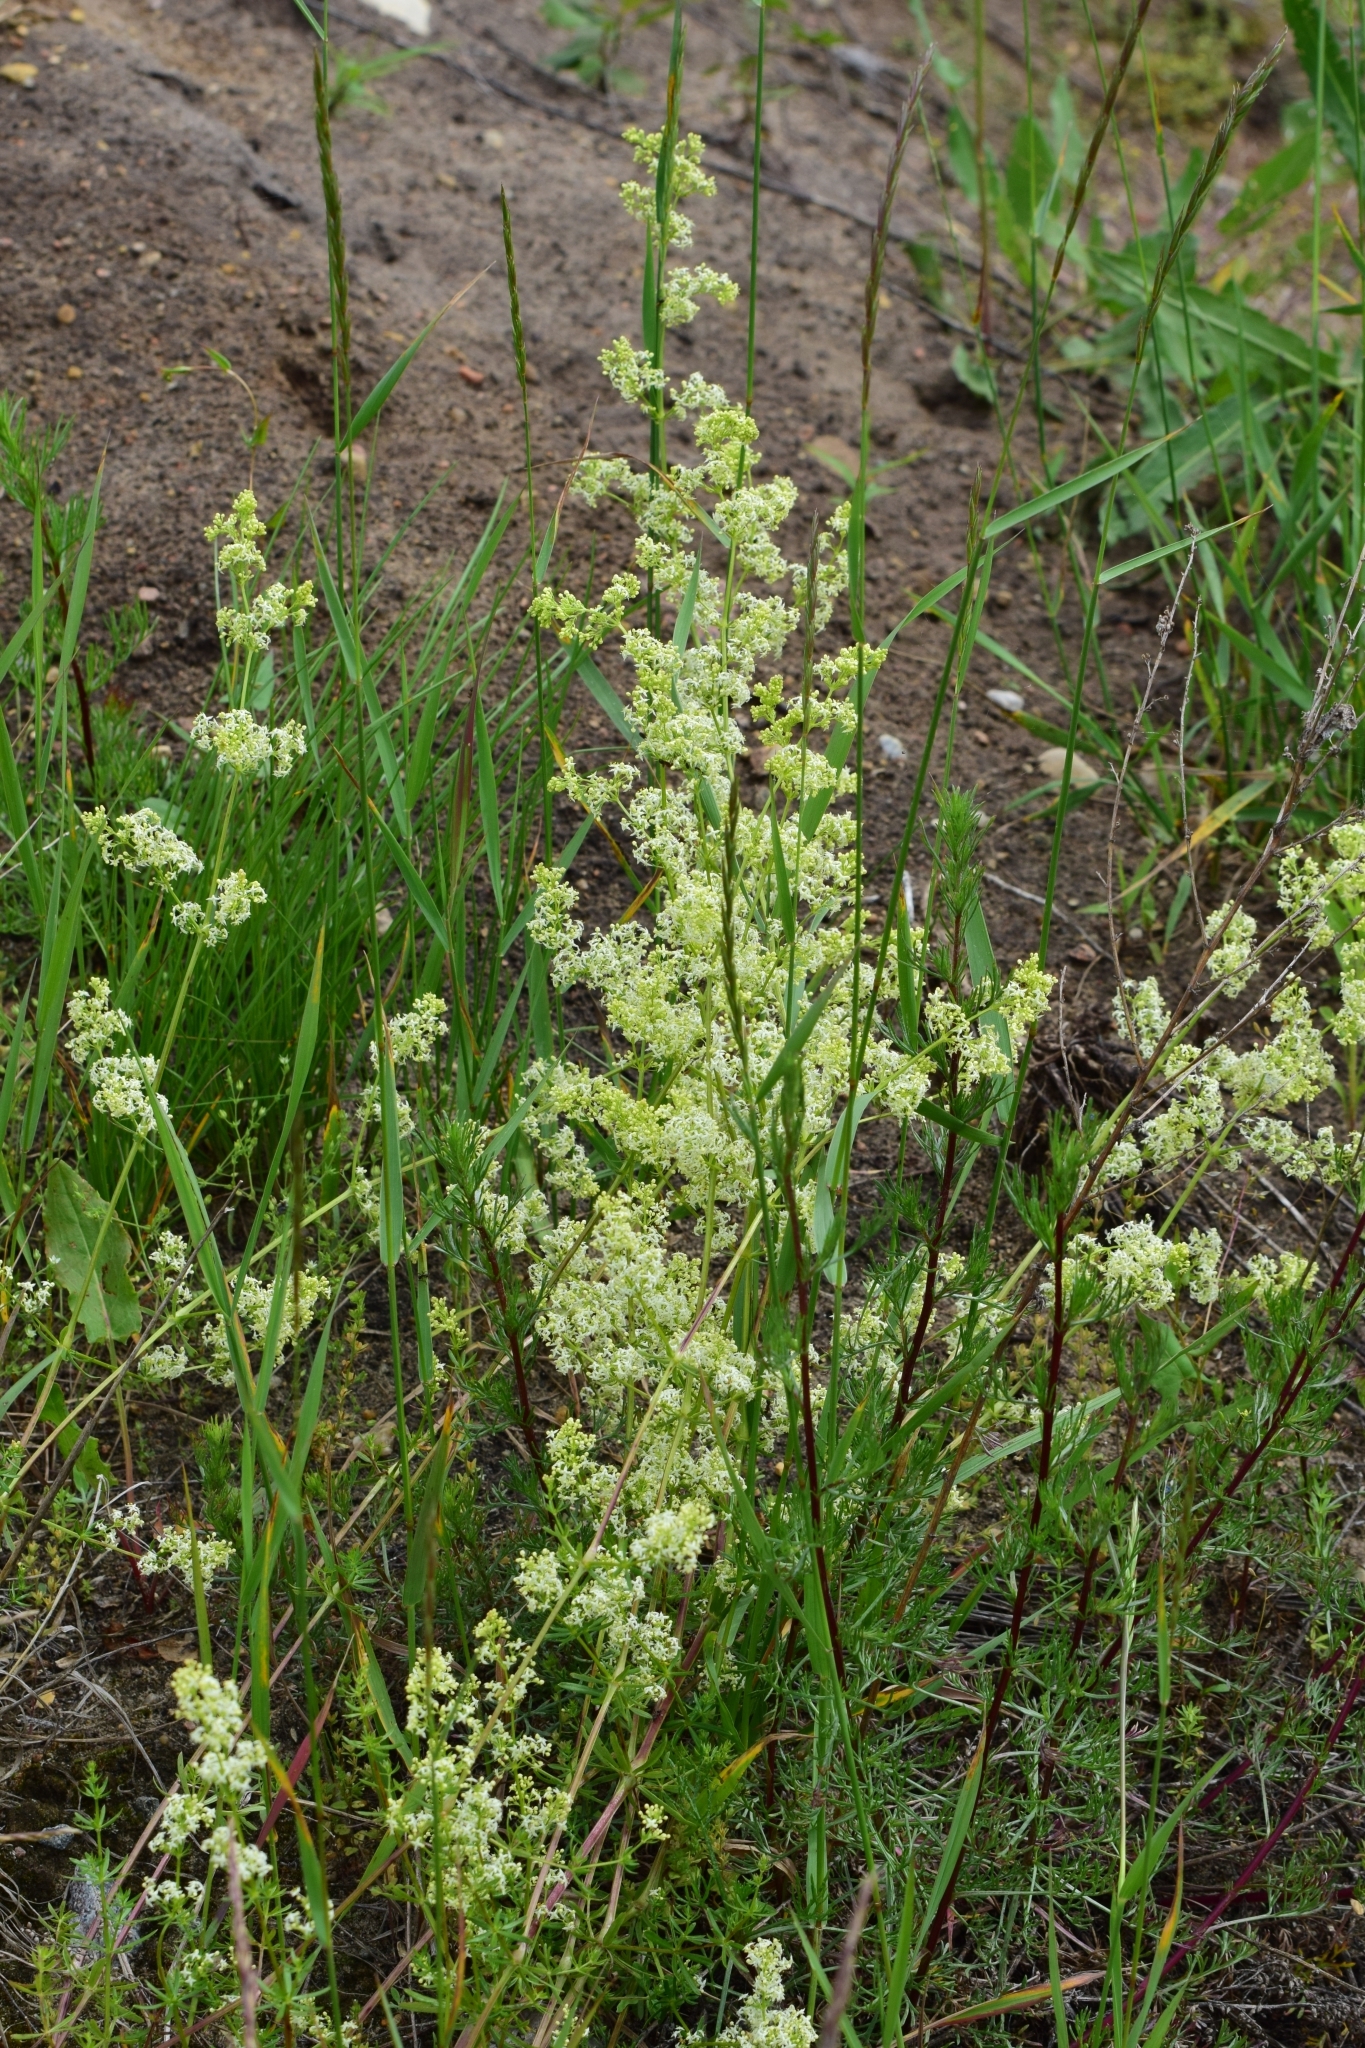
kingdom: Plantae
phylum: Tracheophyta
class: Magnoliopsida
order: Gentianales
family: Rubiaceae
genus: Galium
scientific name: Galium mollugo
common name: Hedge bedstraw
